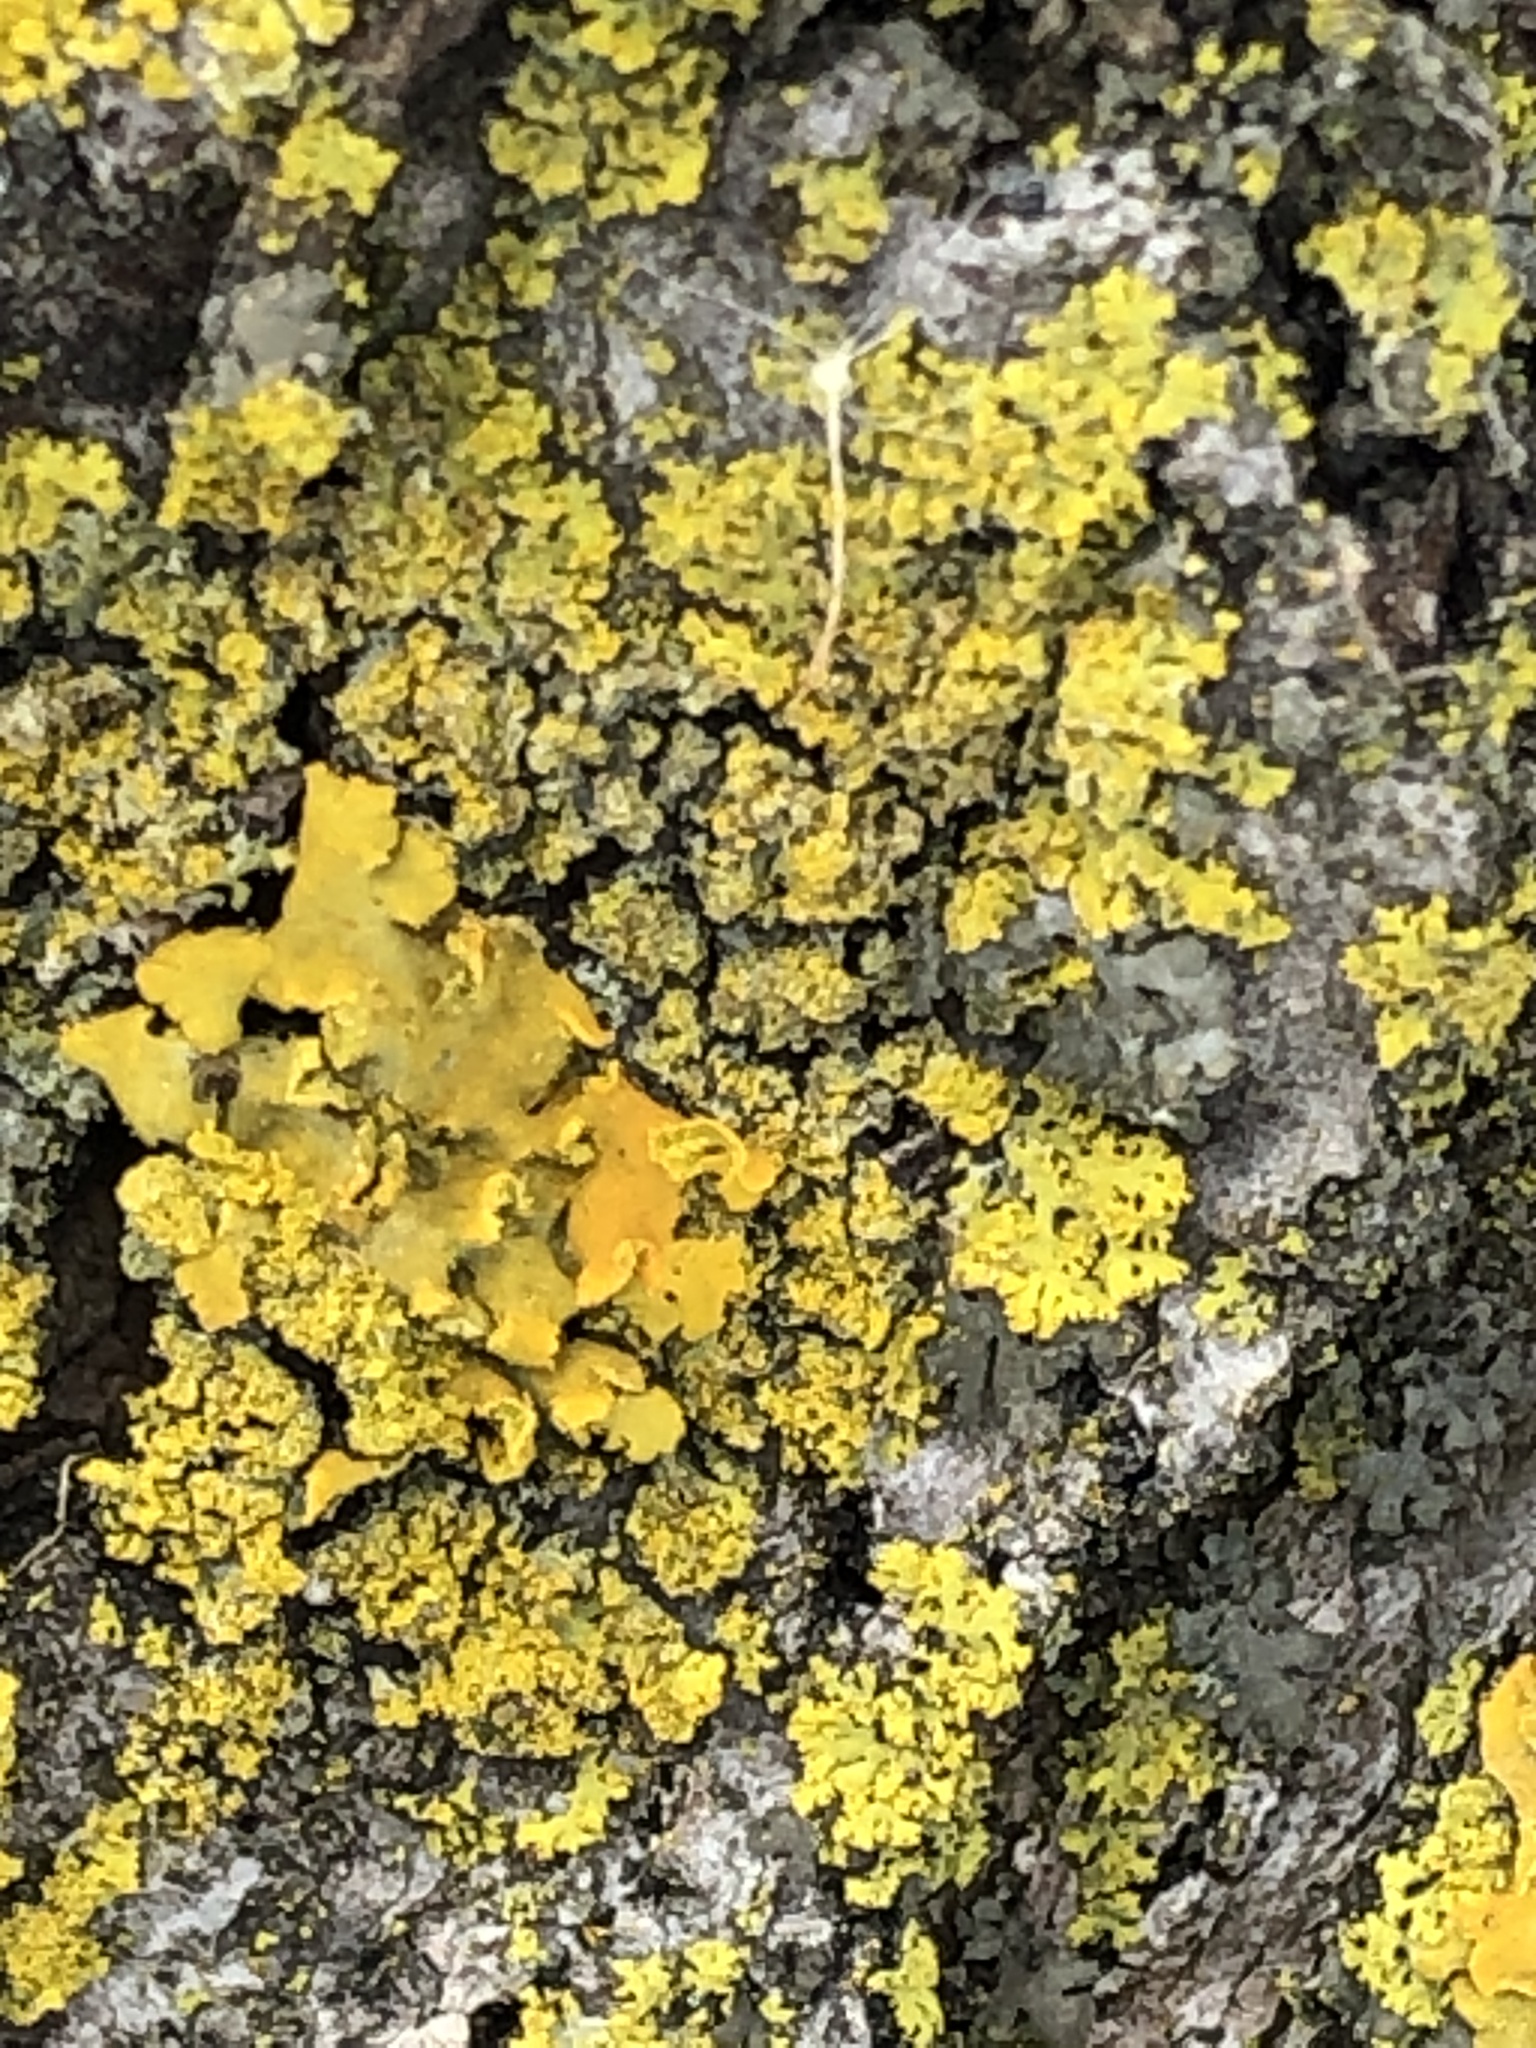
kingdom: Fungi
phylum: Ascomycota
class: Lecanoromycetes
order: Teloschistales
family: Teloschistaceae
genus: Oxneria
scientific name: Oxneria fallax
